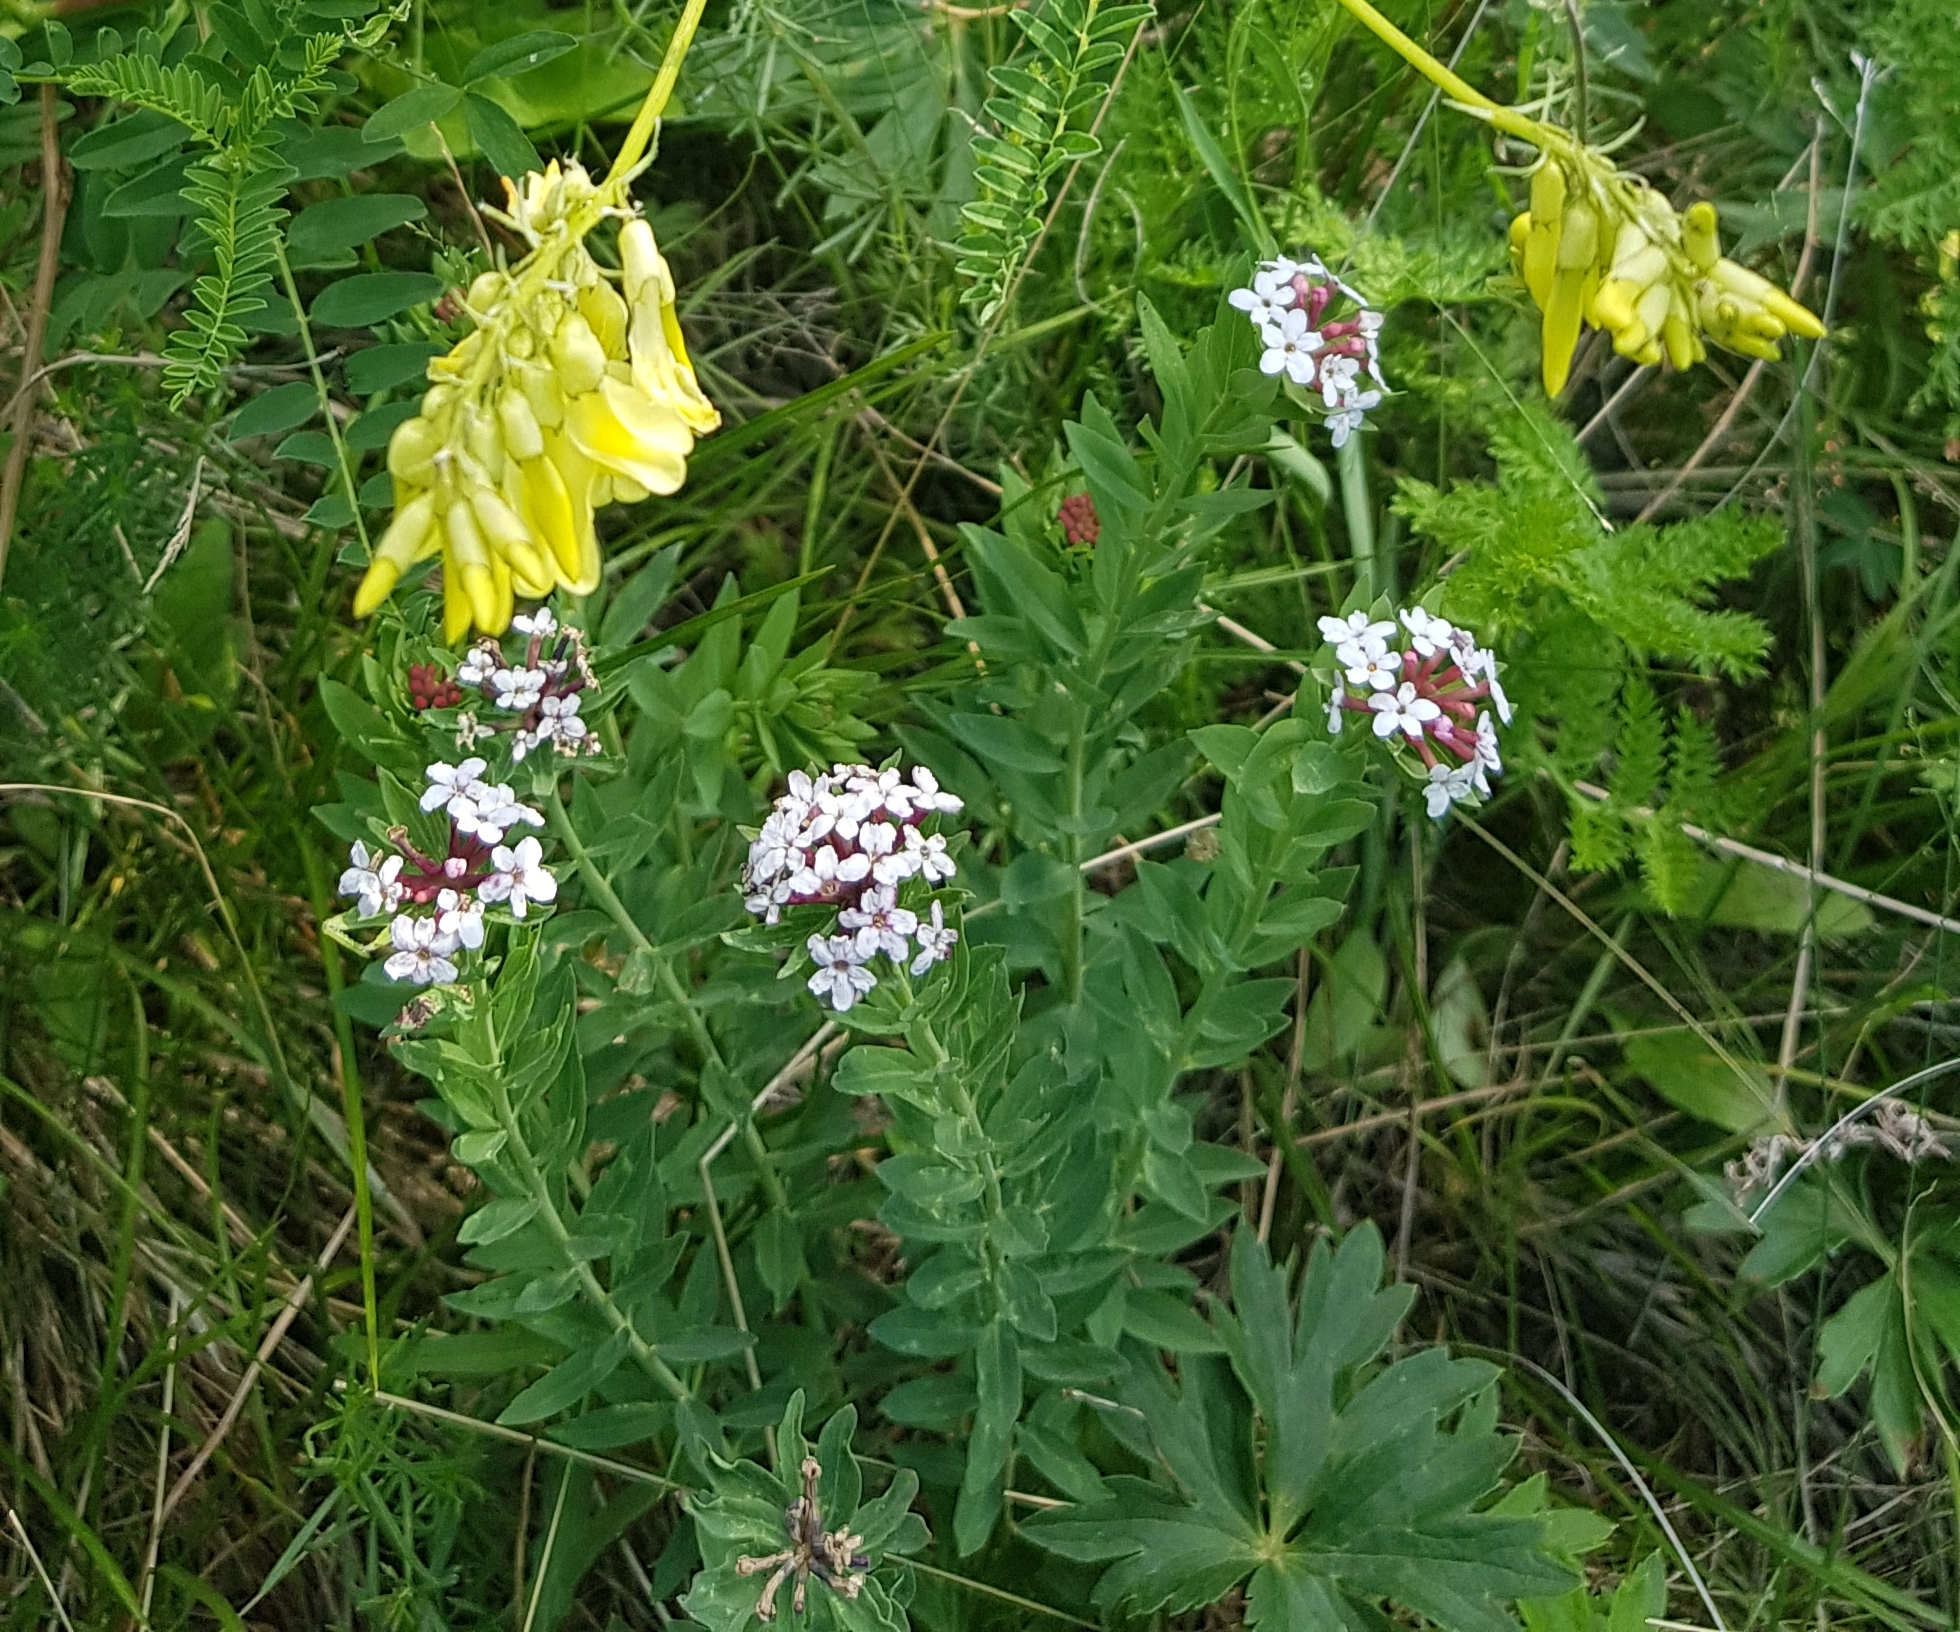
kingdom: Plantae
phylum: Tracheophyta
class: Magnoliopsida
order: Malvales
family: Thymelaeaceae
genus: Stellera
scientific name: Stellera chamaejasme
